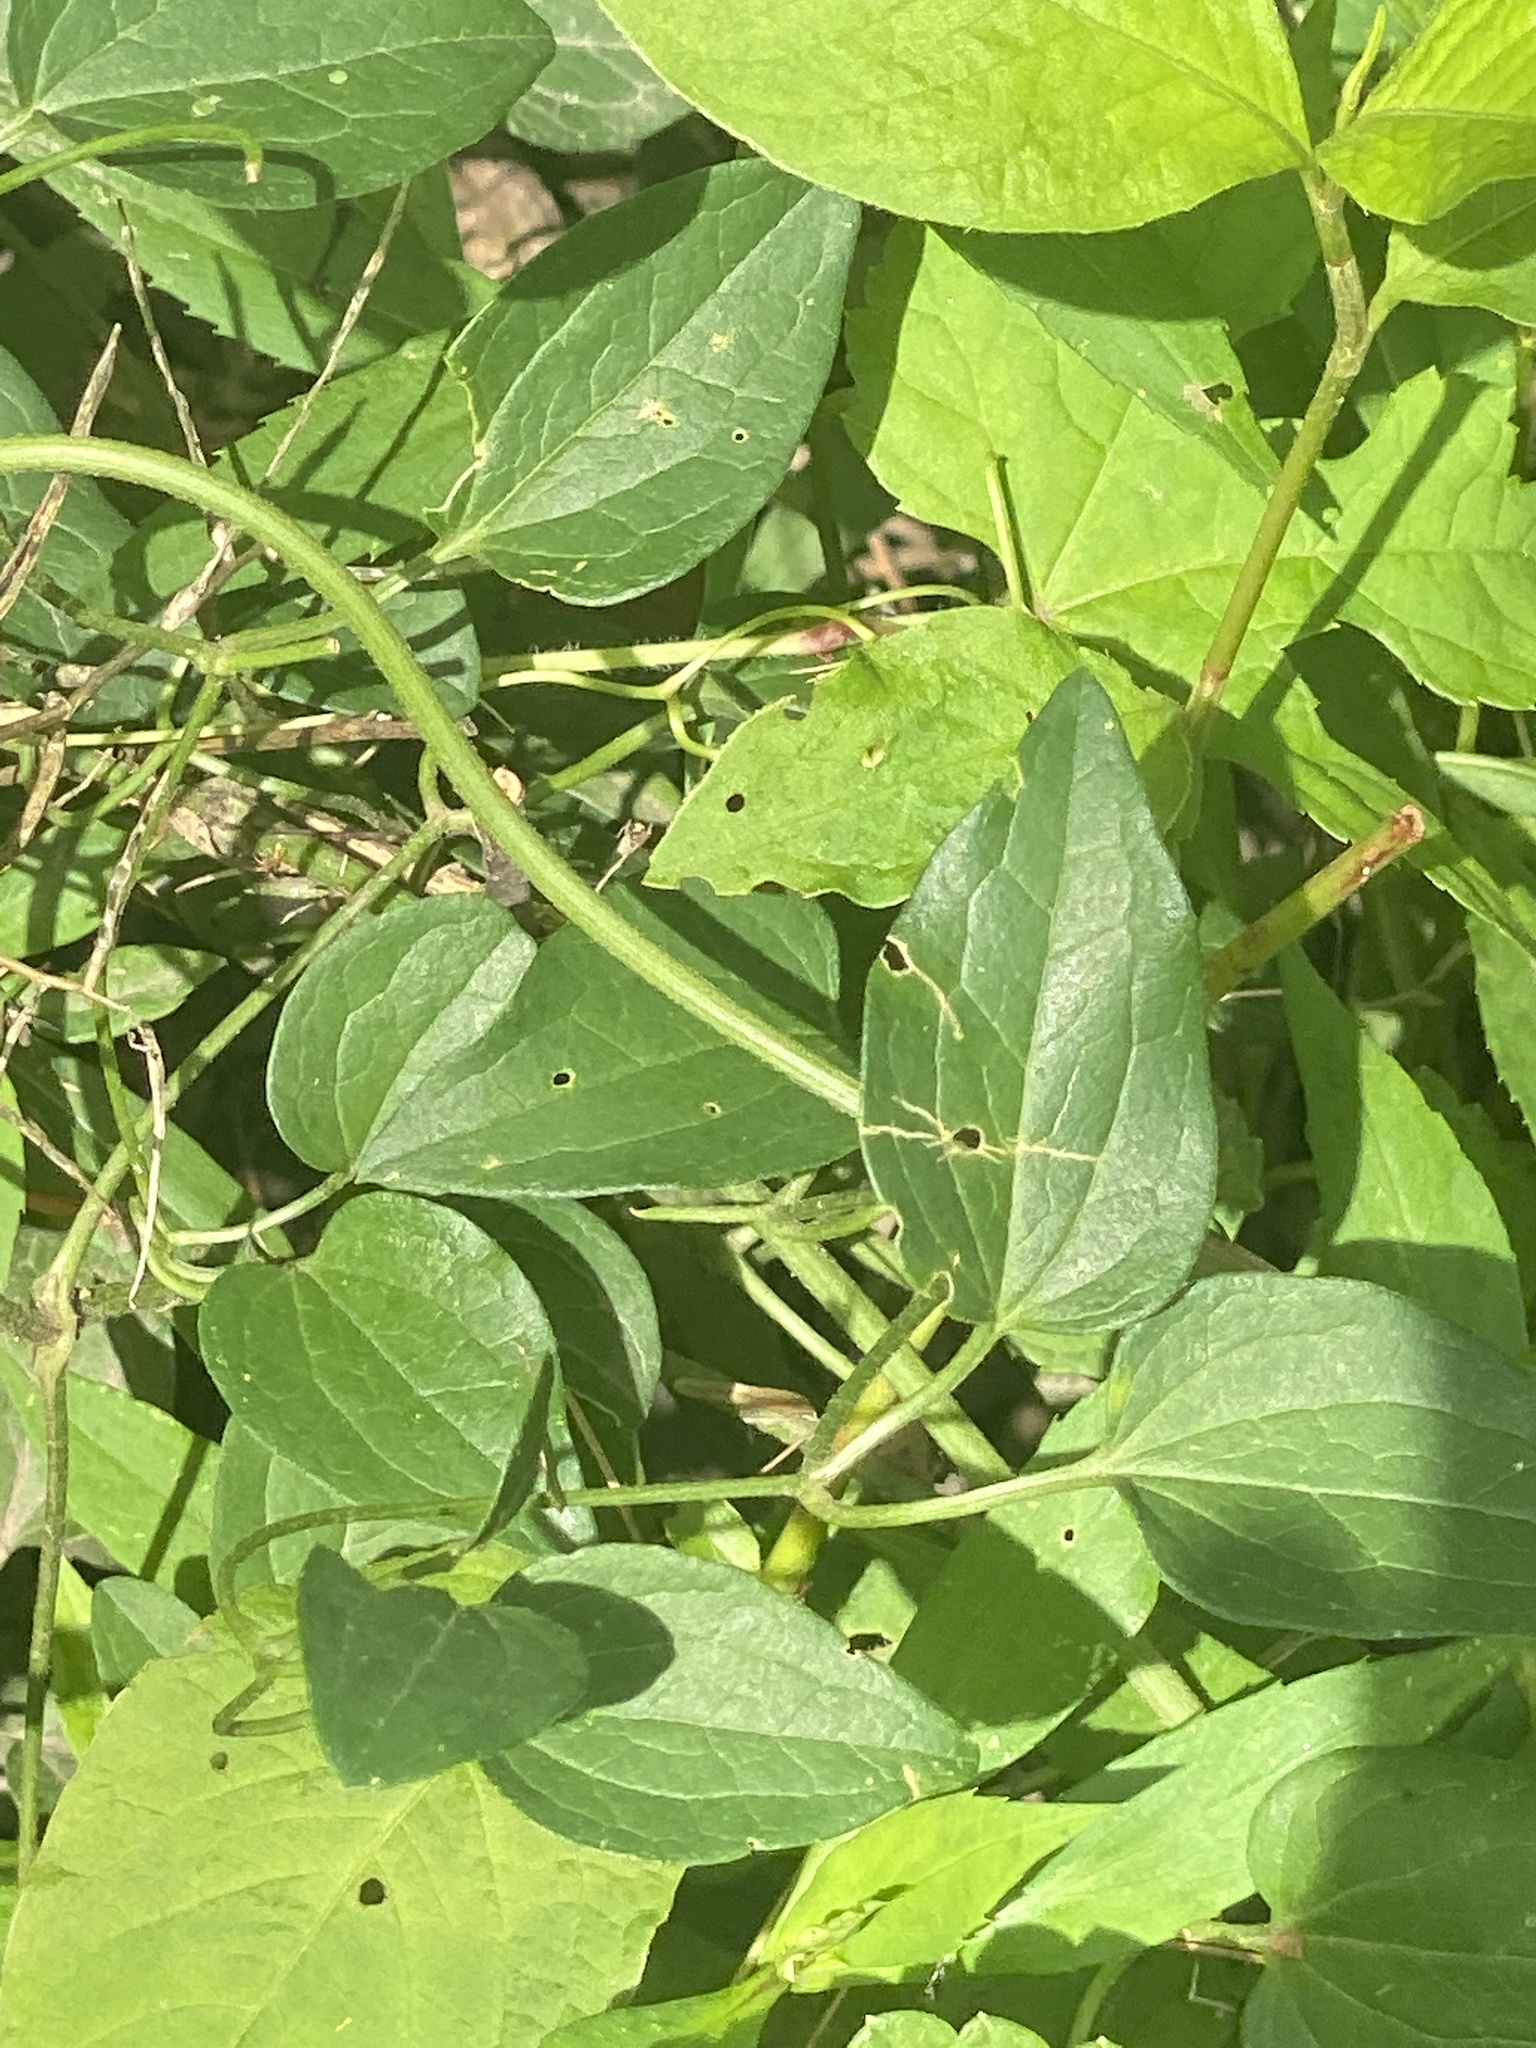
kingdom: Plantae
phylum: Tracheophyta
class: Magnoliopsida
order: Ranunculales
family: Ranunculaceae
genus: Clematis
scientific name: Clematis terniflora
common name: Sweet autumn clematis
